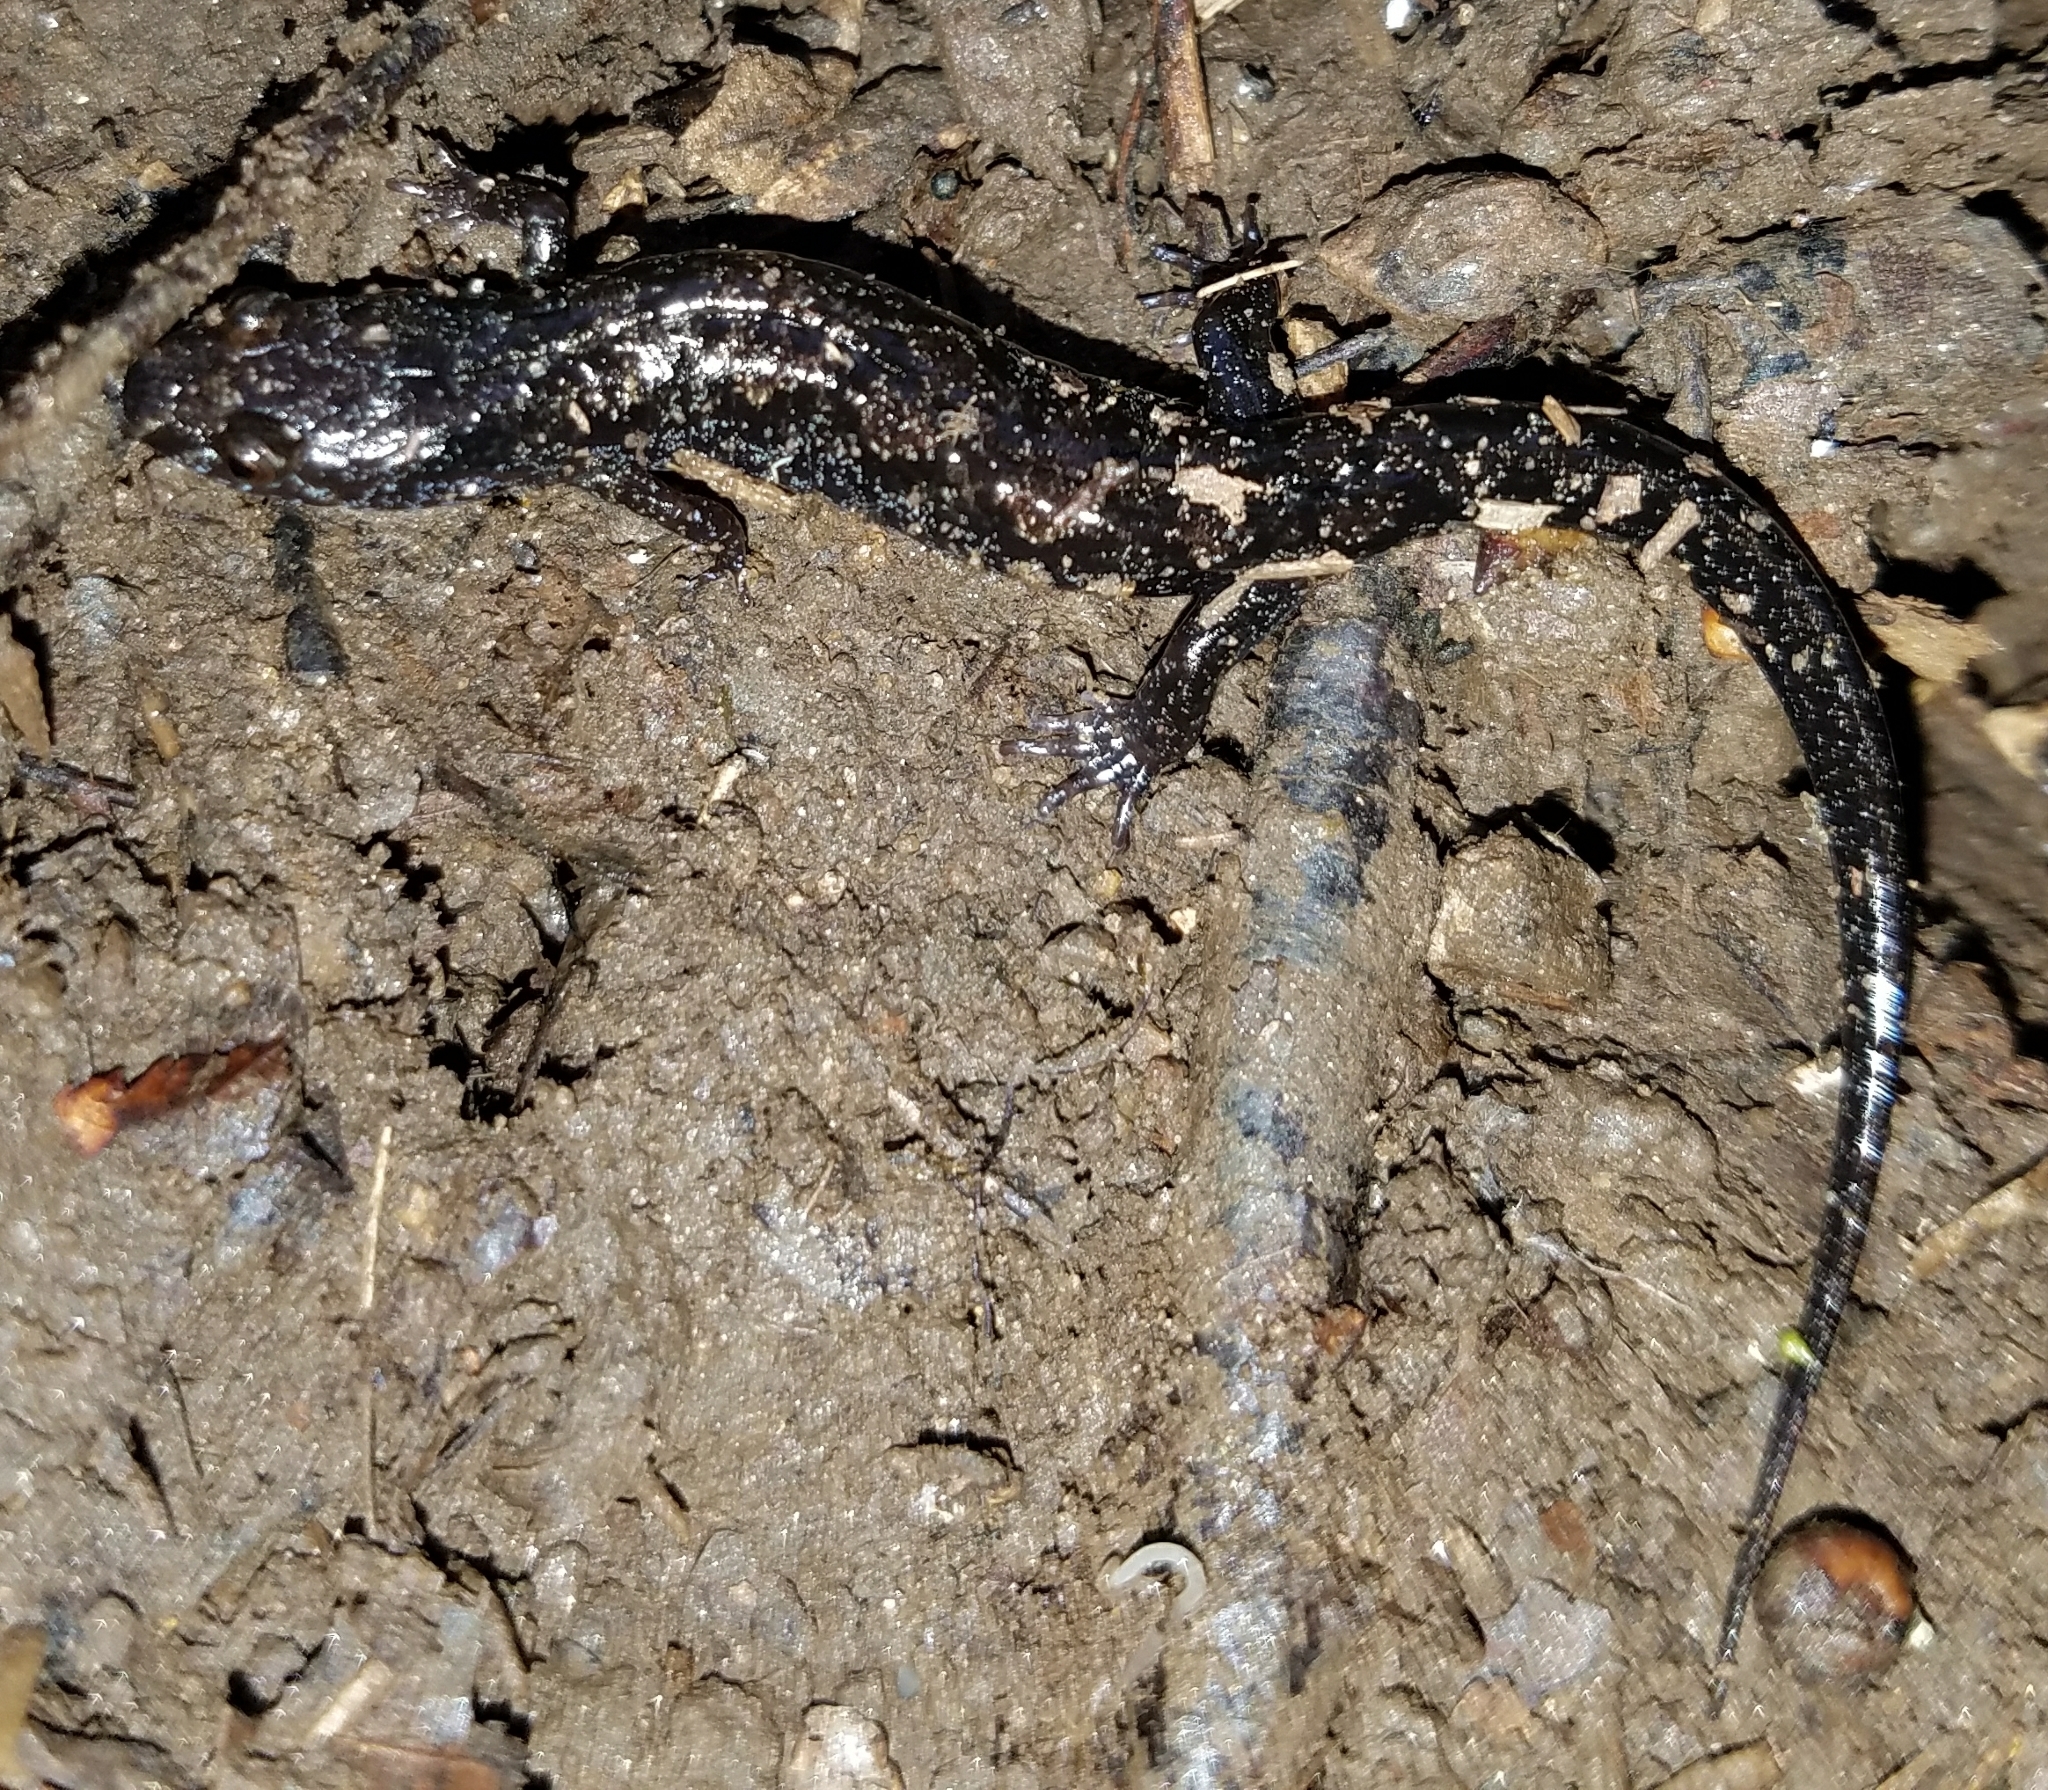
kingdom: Animalia
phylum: Chordata
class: Amphibia
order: Caudata
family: Plethodontidae
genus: Desmognathus
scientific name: Desmognathus ocoee
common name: Ocoee salamander
